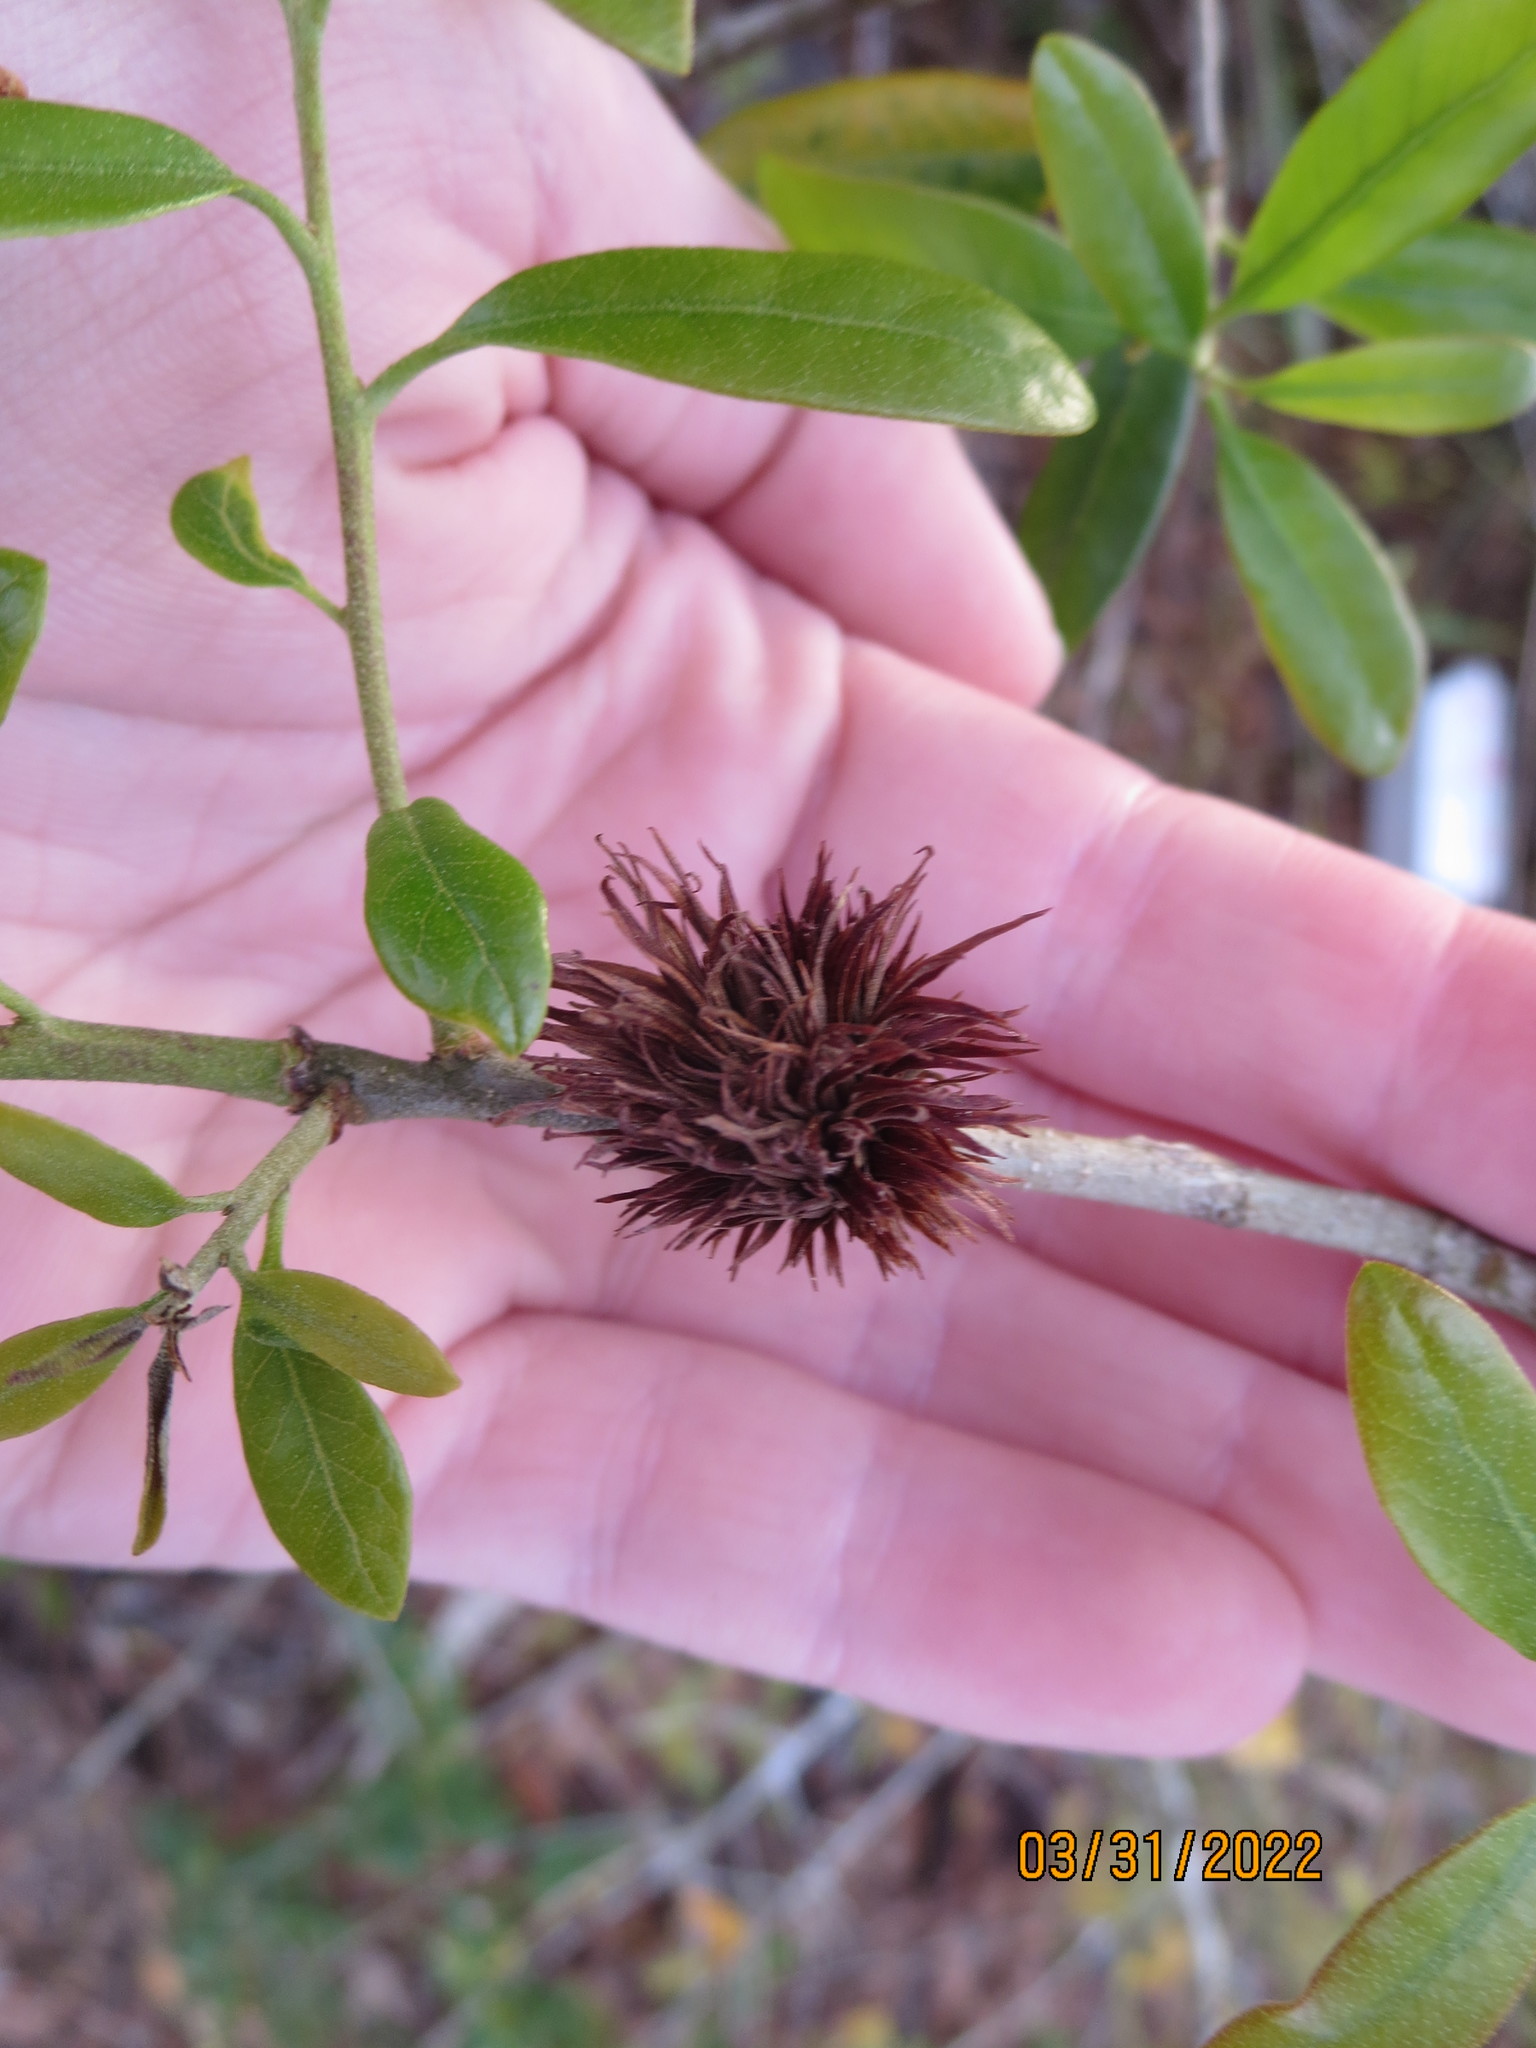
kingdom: Animalia
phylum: Arthropoda
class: Insecta
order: Hymenoptera
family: Cynipidae
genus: Andricus
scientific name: Andricus quercusfoliatus
